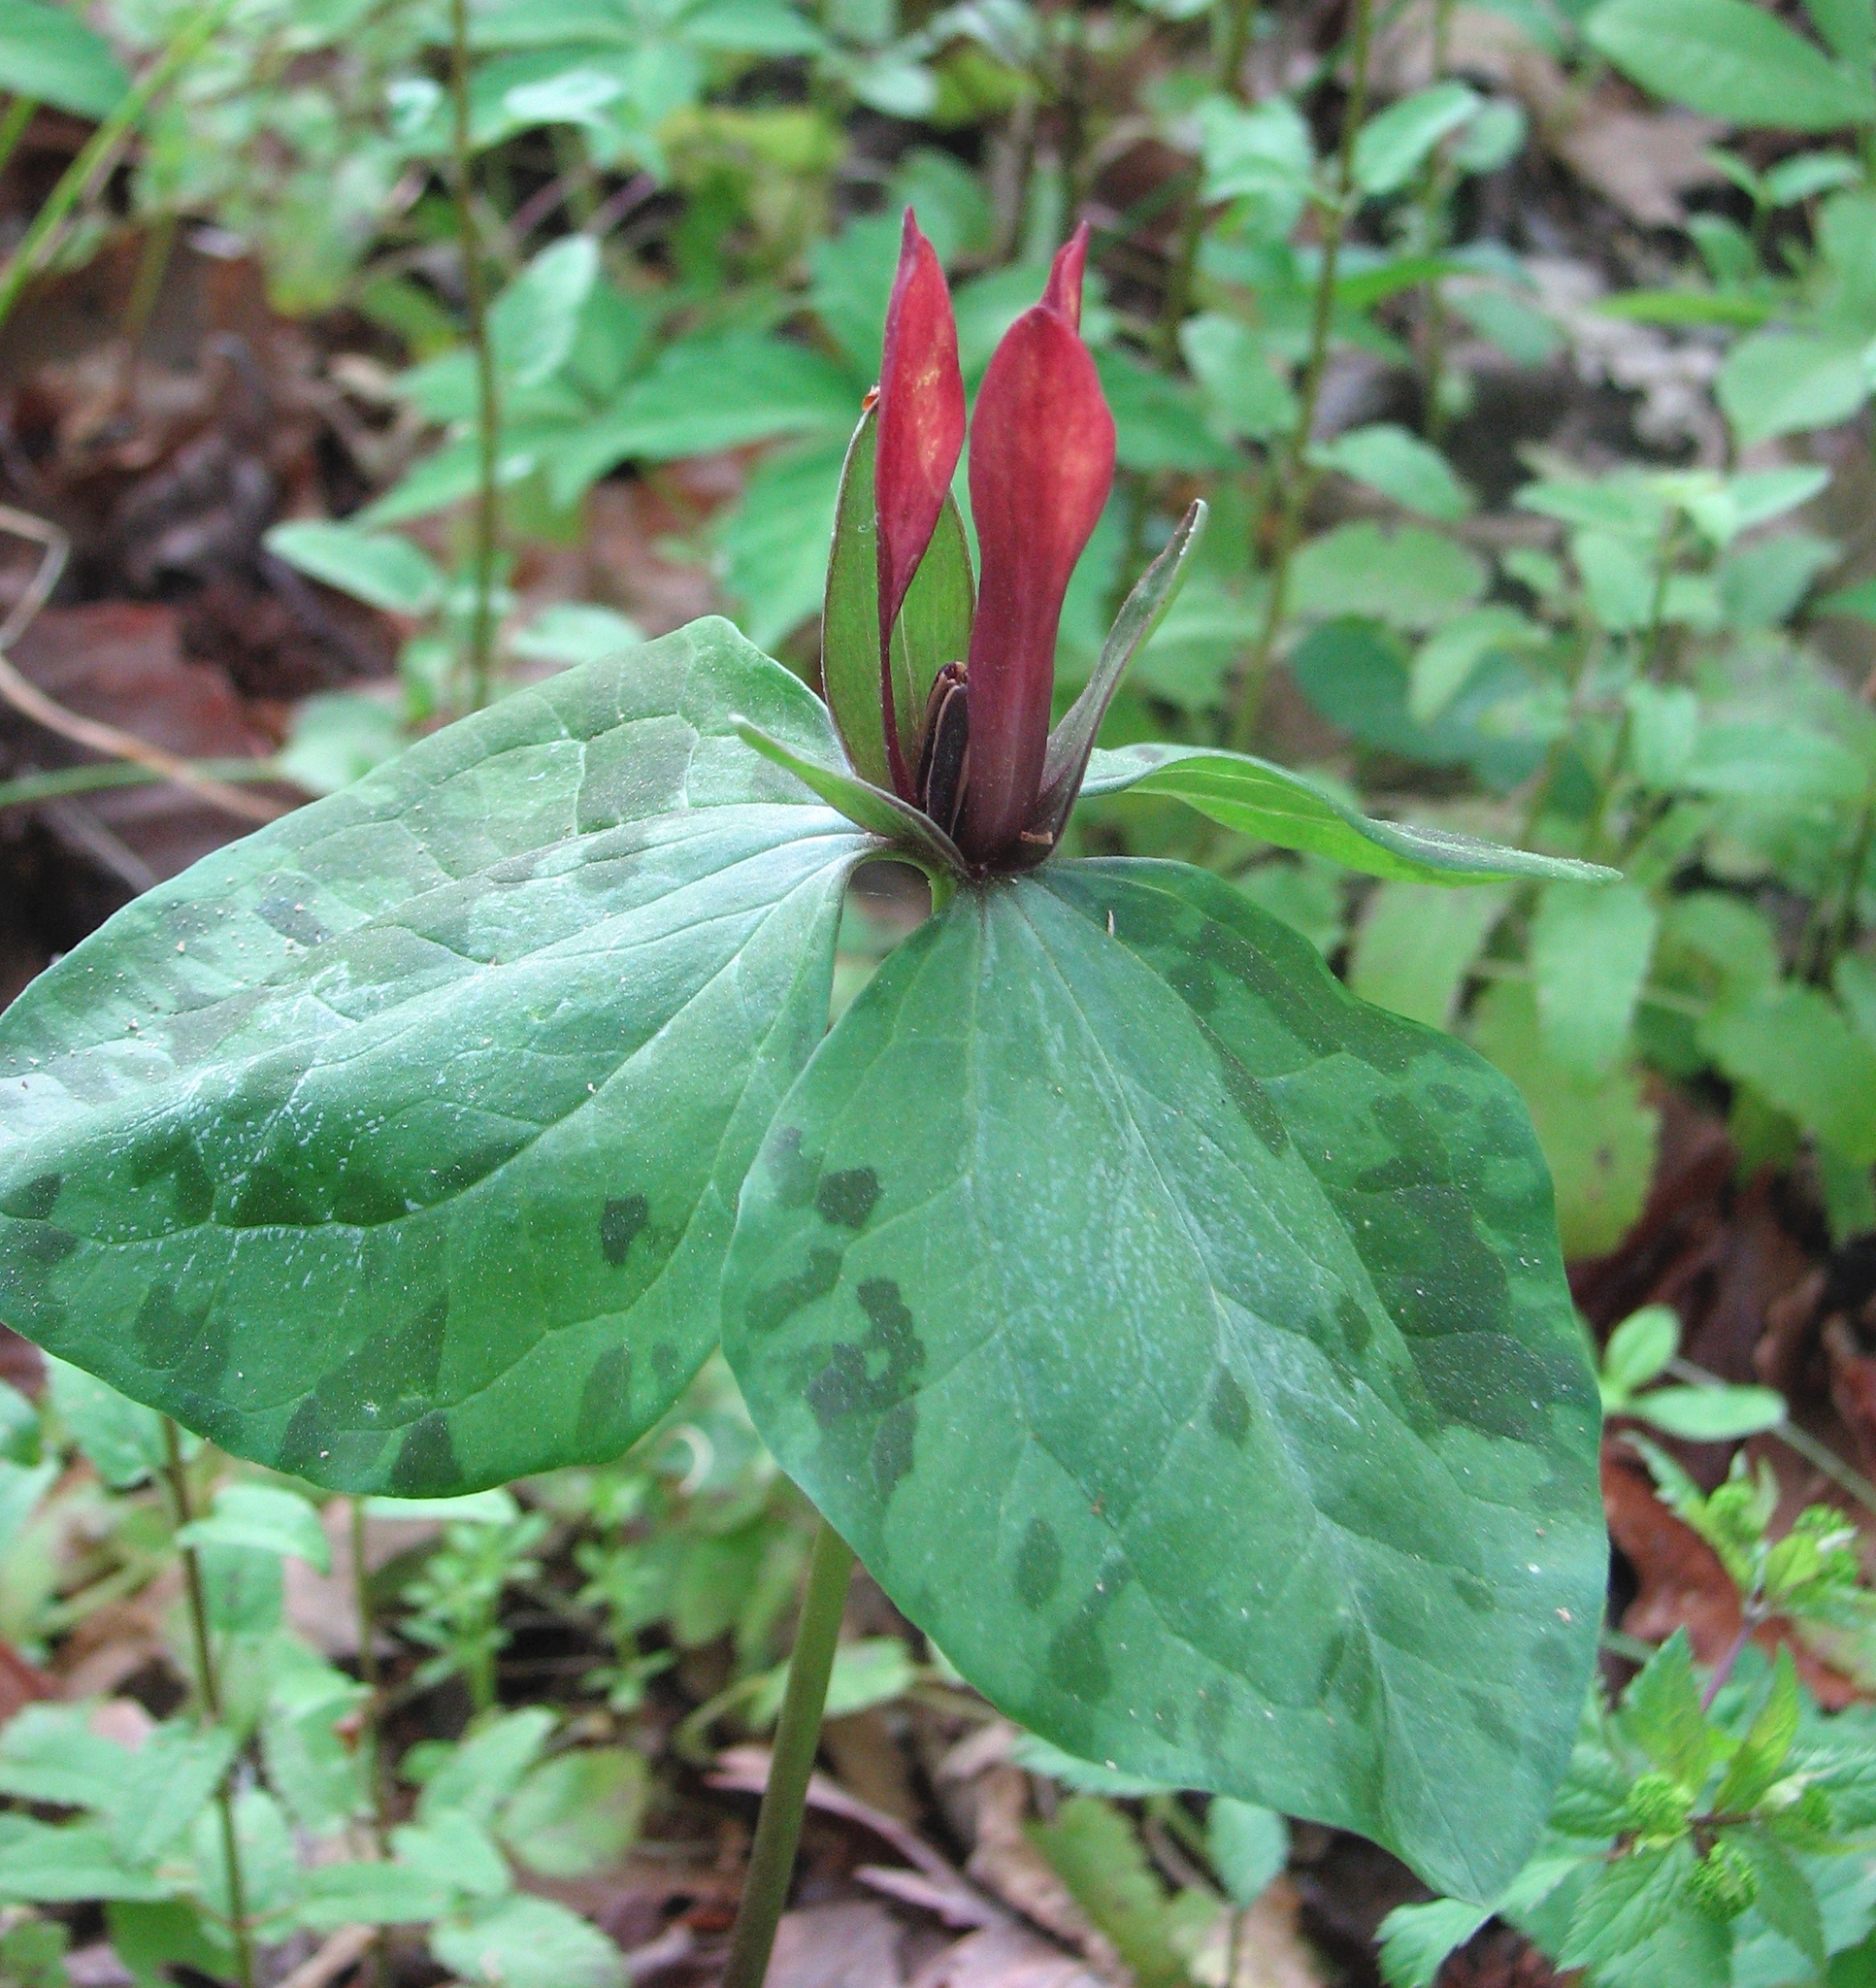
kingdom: Plantae
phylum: Tracheophyta
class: Liliopsida
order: Liliales
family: Melanthiaceae
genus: Trillium
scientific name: Trillium maculatum
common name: Mottled trillium
